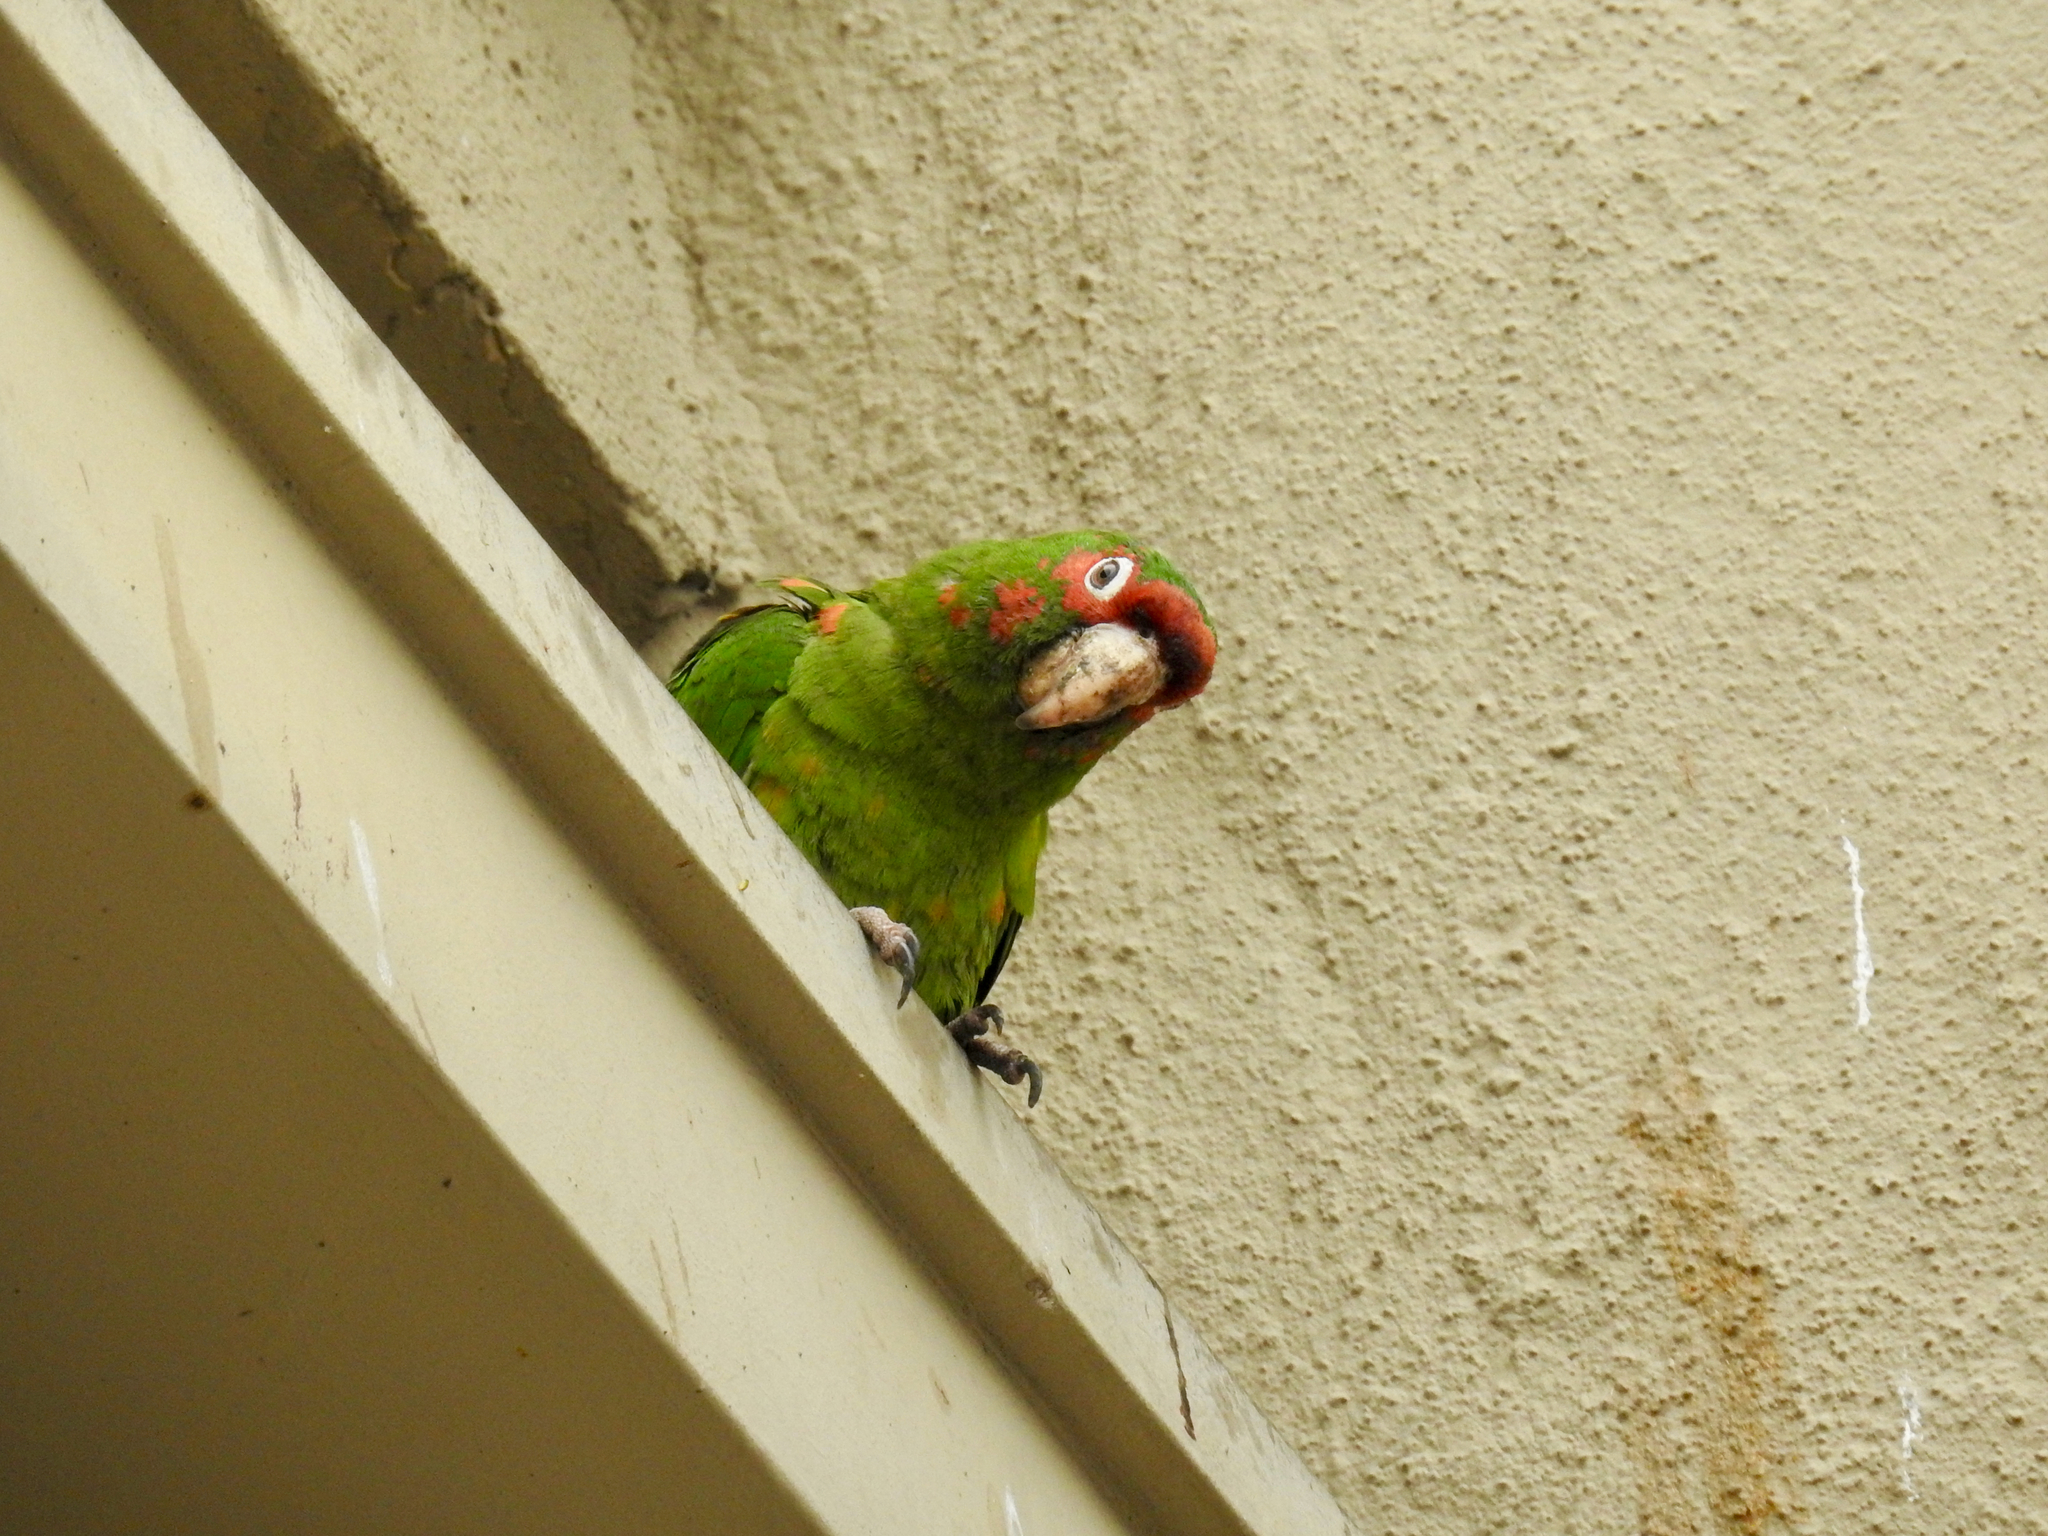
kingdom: Animalia
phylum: Chordata
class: Aves
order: Psittaciformes
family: Psittacidae
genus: Aratinga
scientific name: Aratinga mitrata
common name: Mitred parakeet
